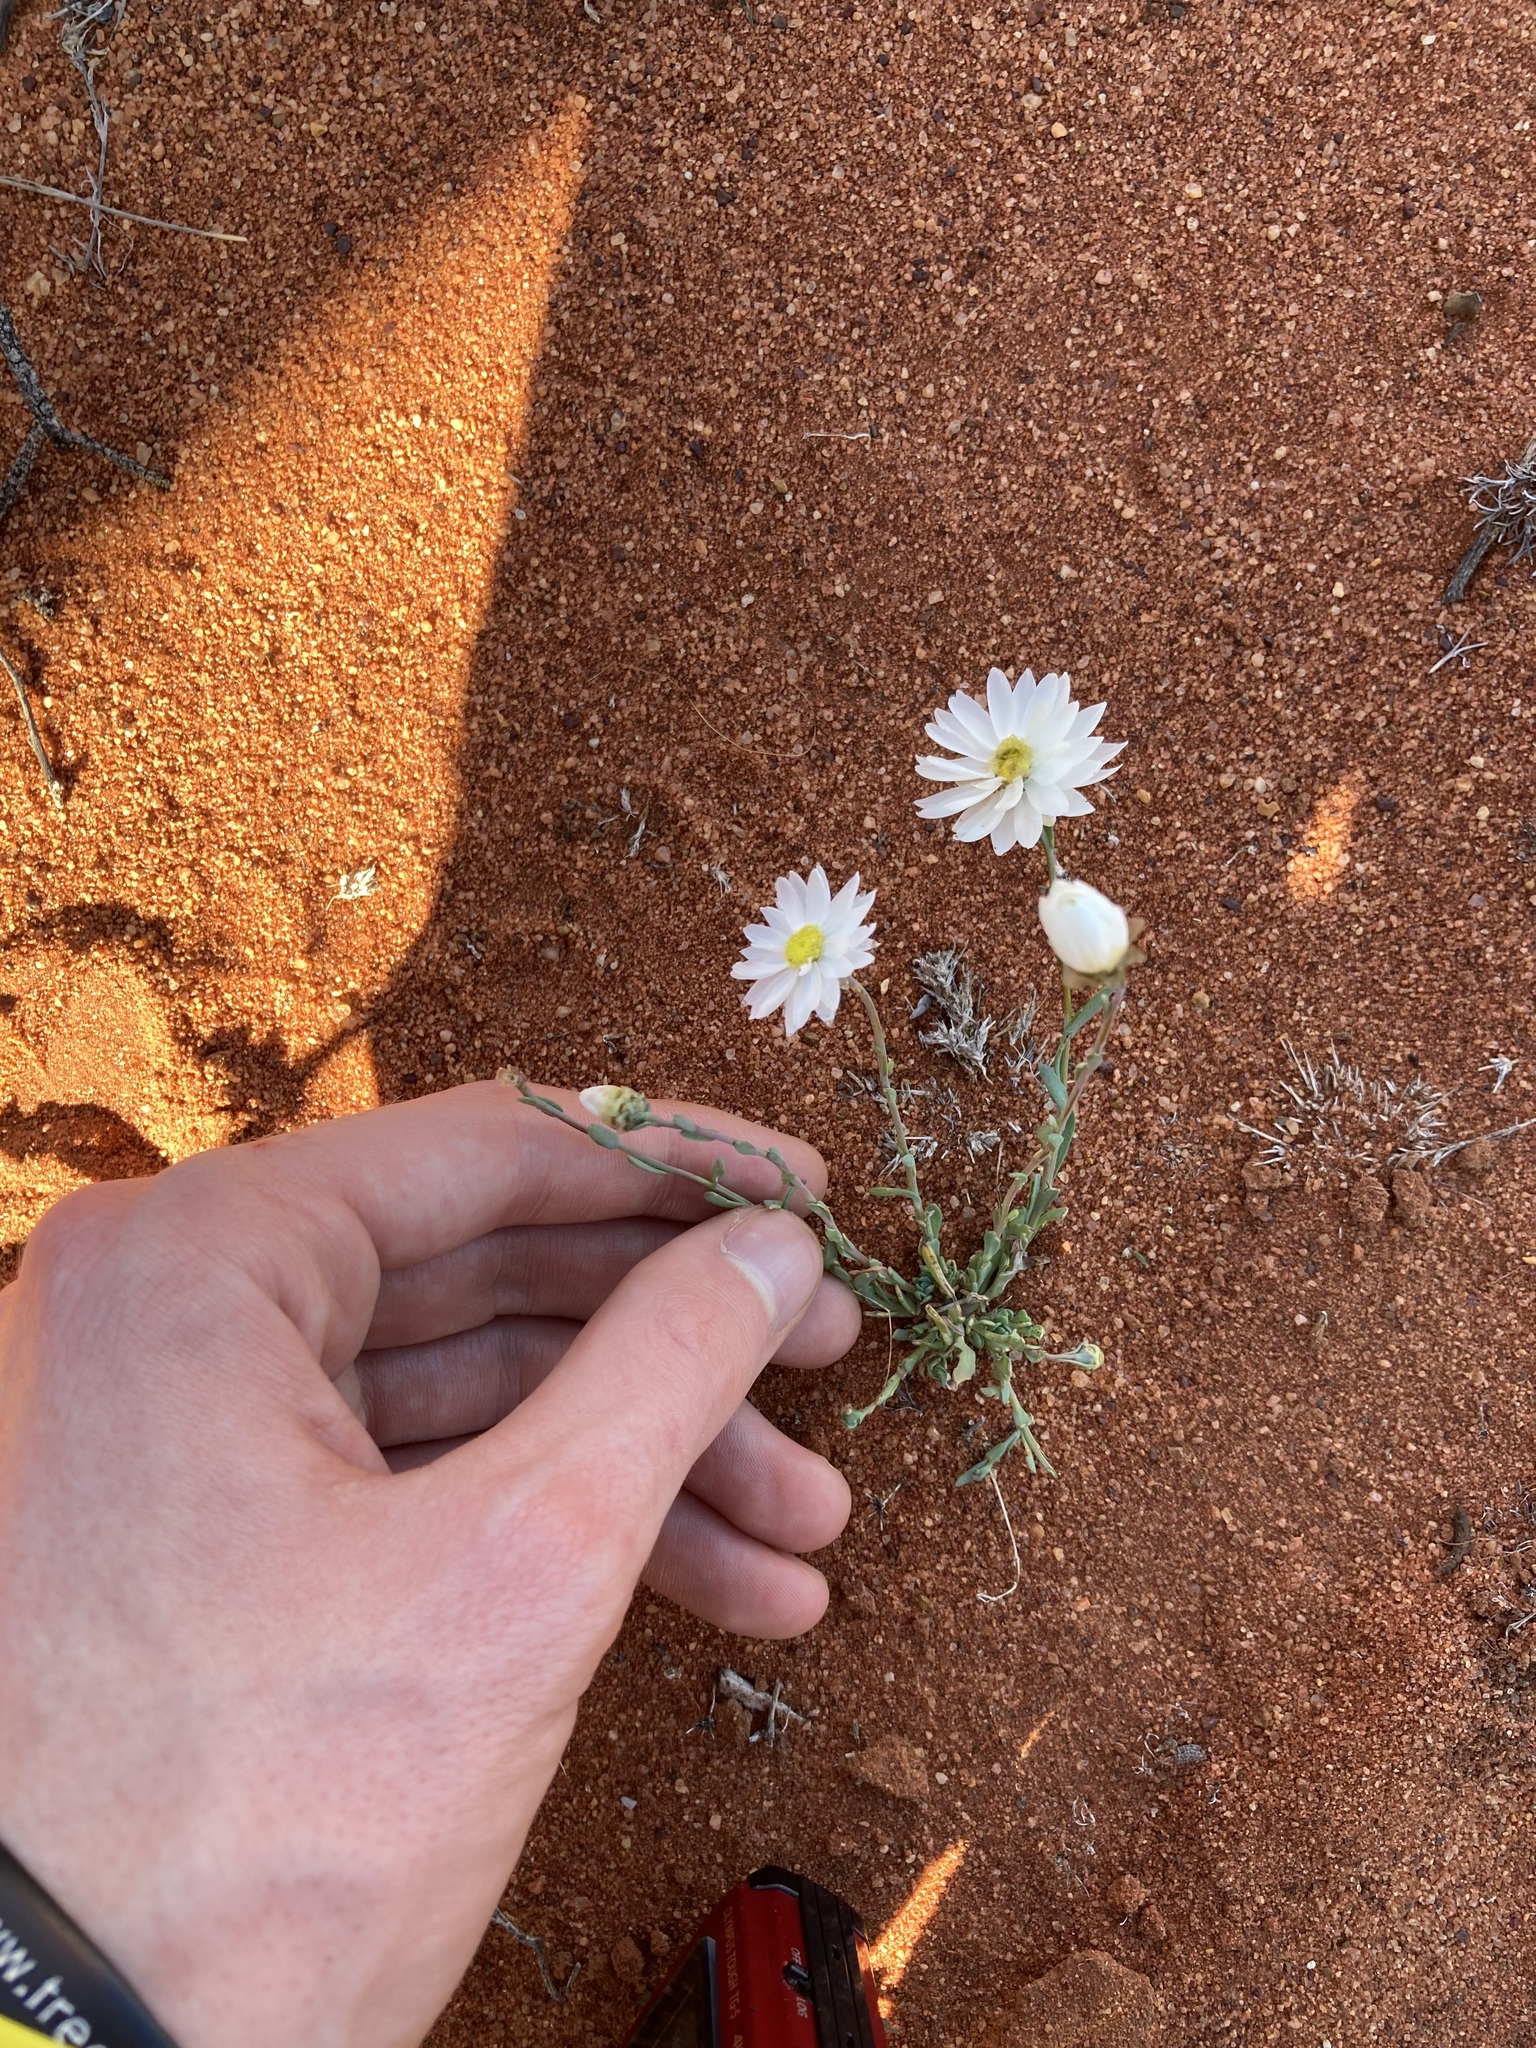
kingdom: Plantae
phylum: Tracheophyta
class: Magnoliopsida
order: Asterales
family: Asteraceae
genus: Rhodanthe
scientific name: Rhodanthe chlorocephala
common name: Rosy sunray
